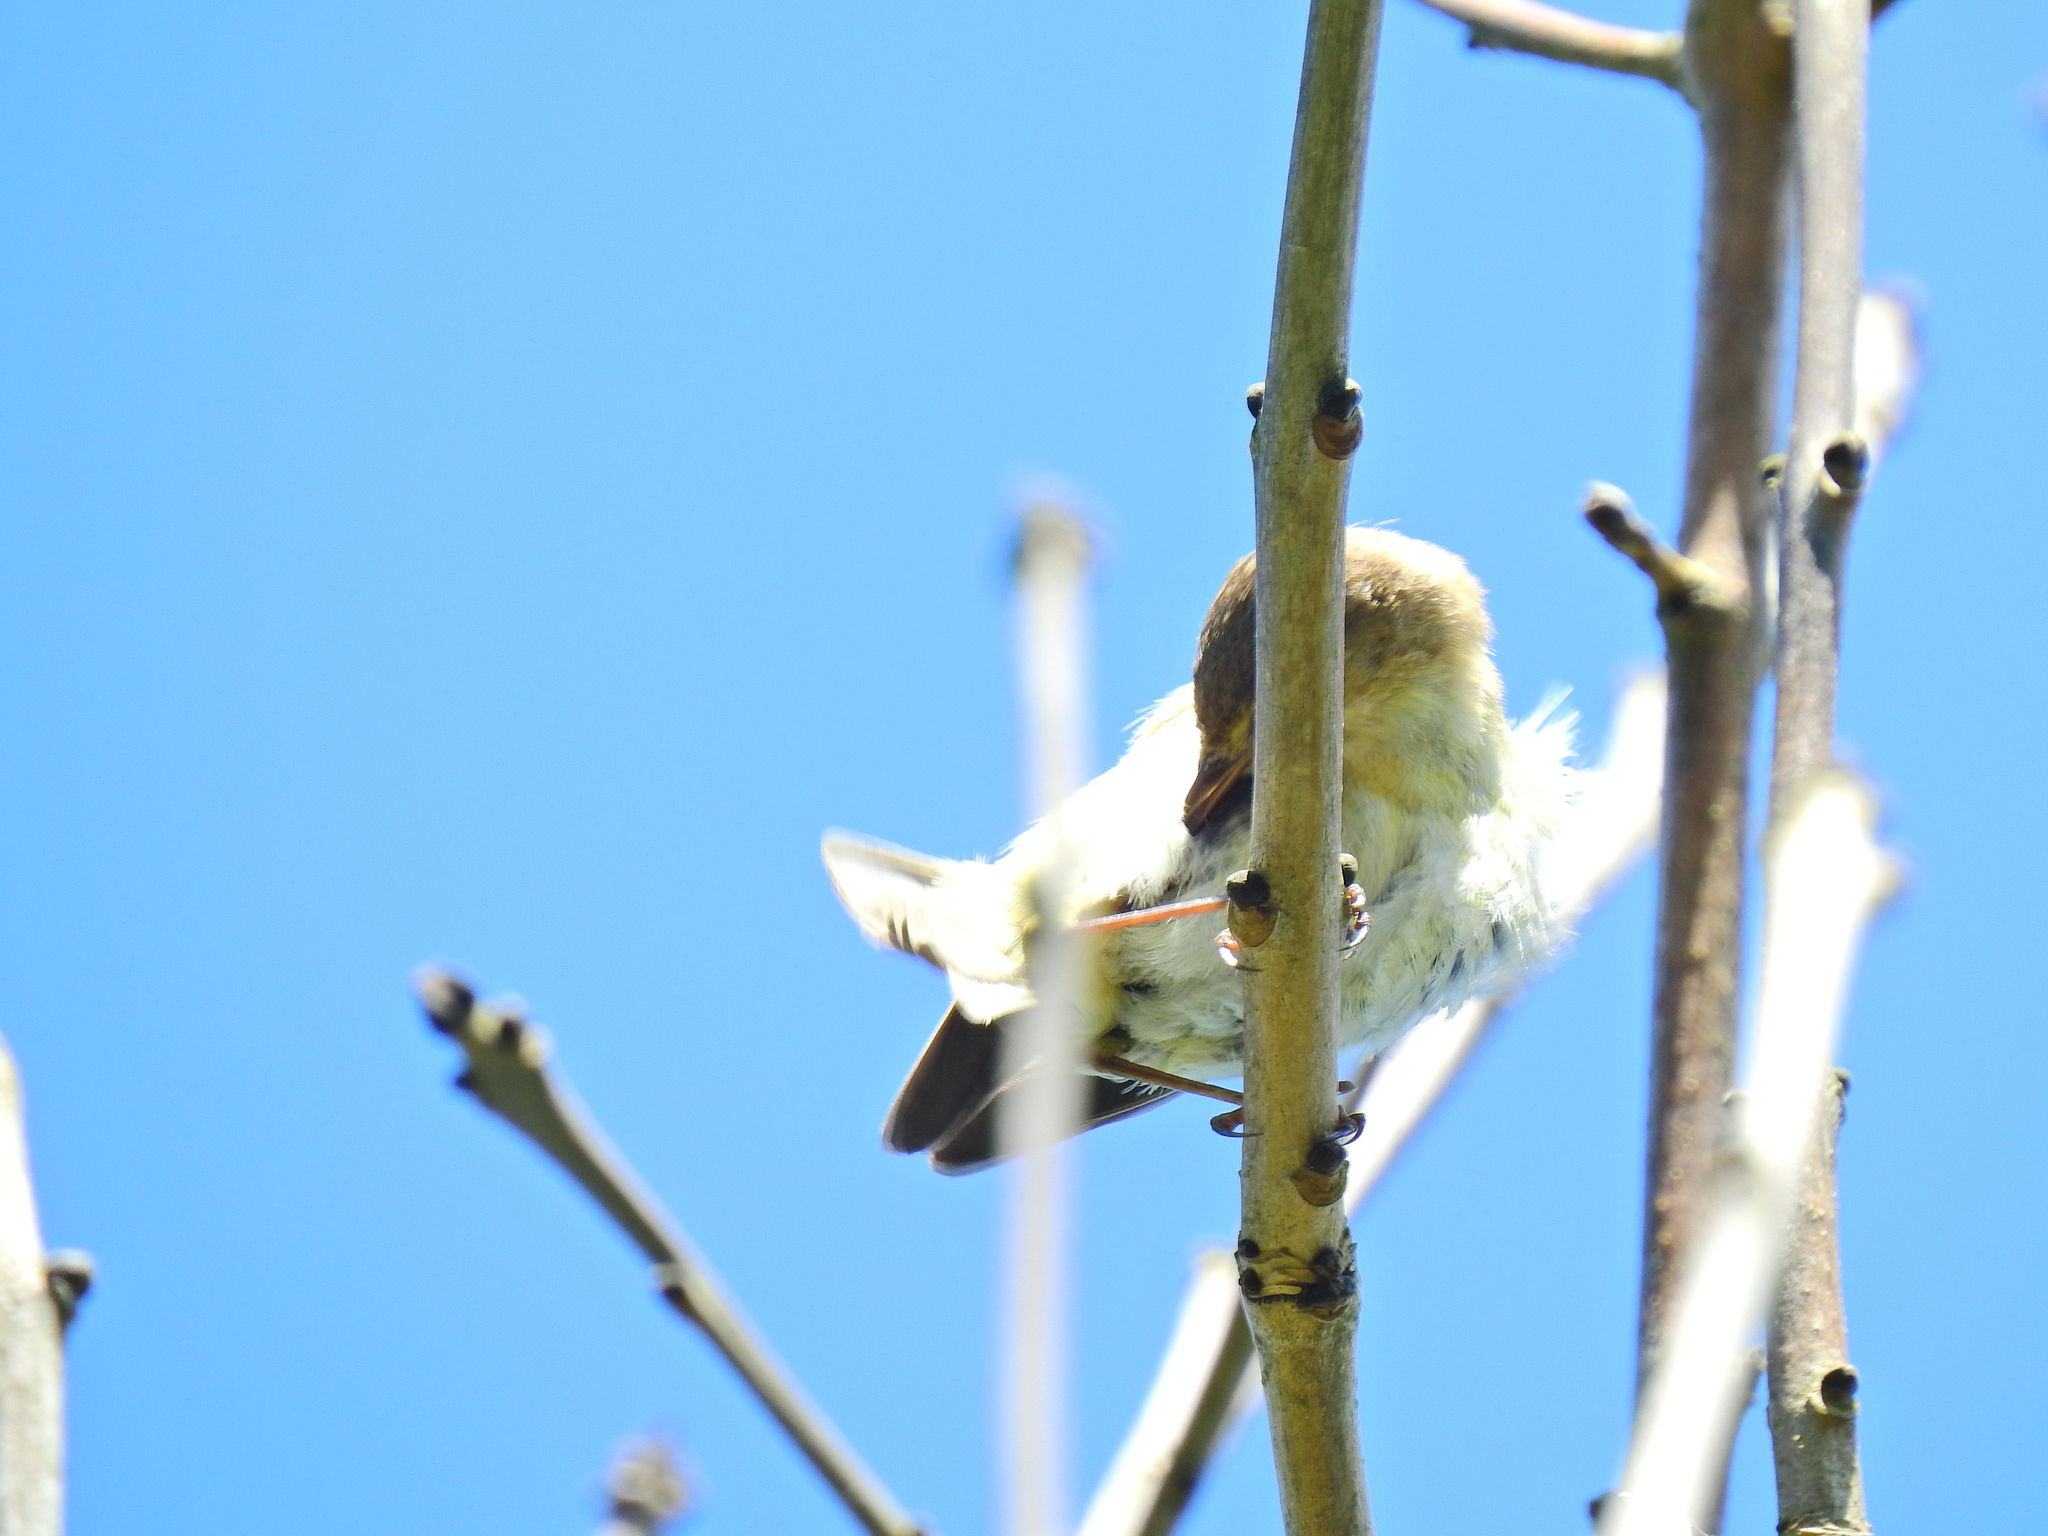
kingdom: Animalia
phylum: Chordata
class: Aves
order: Passeriformes
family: Phylloscopidae
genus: Phylloscopus
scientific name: Phylloscopus collybita
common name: Common chiffchaff
